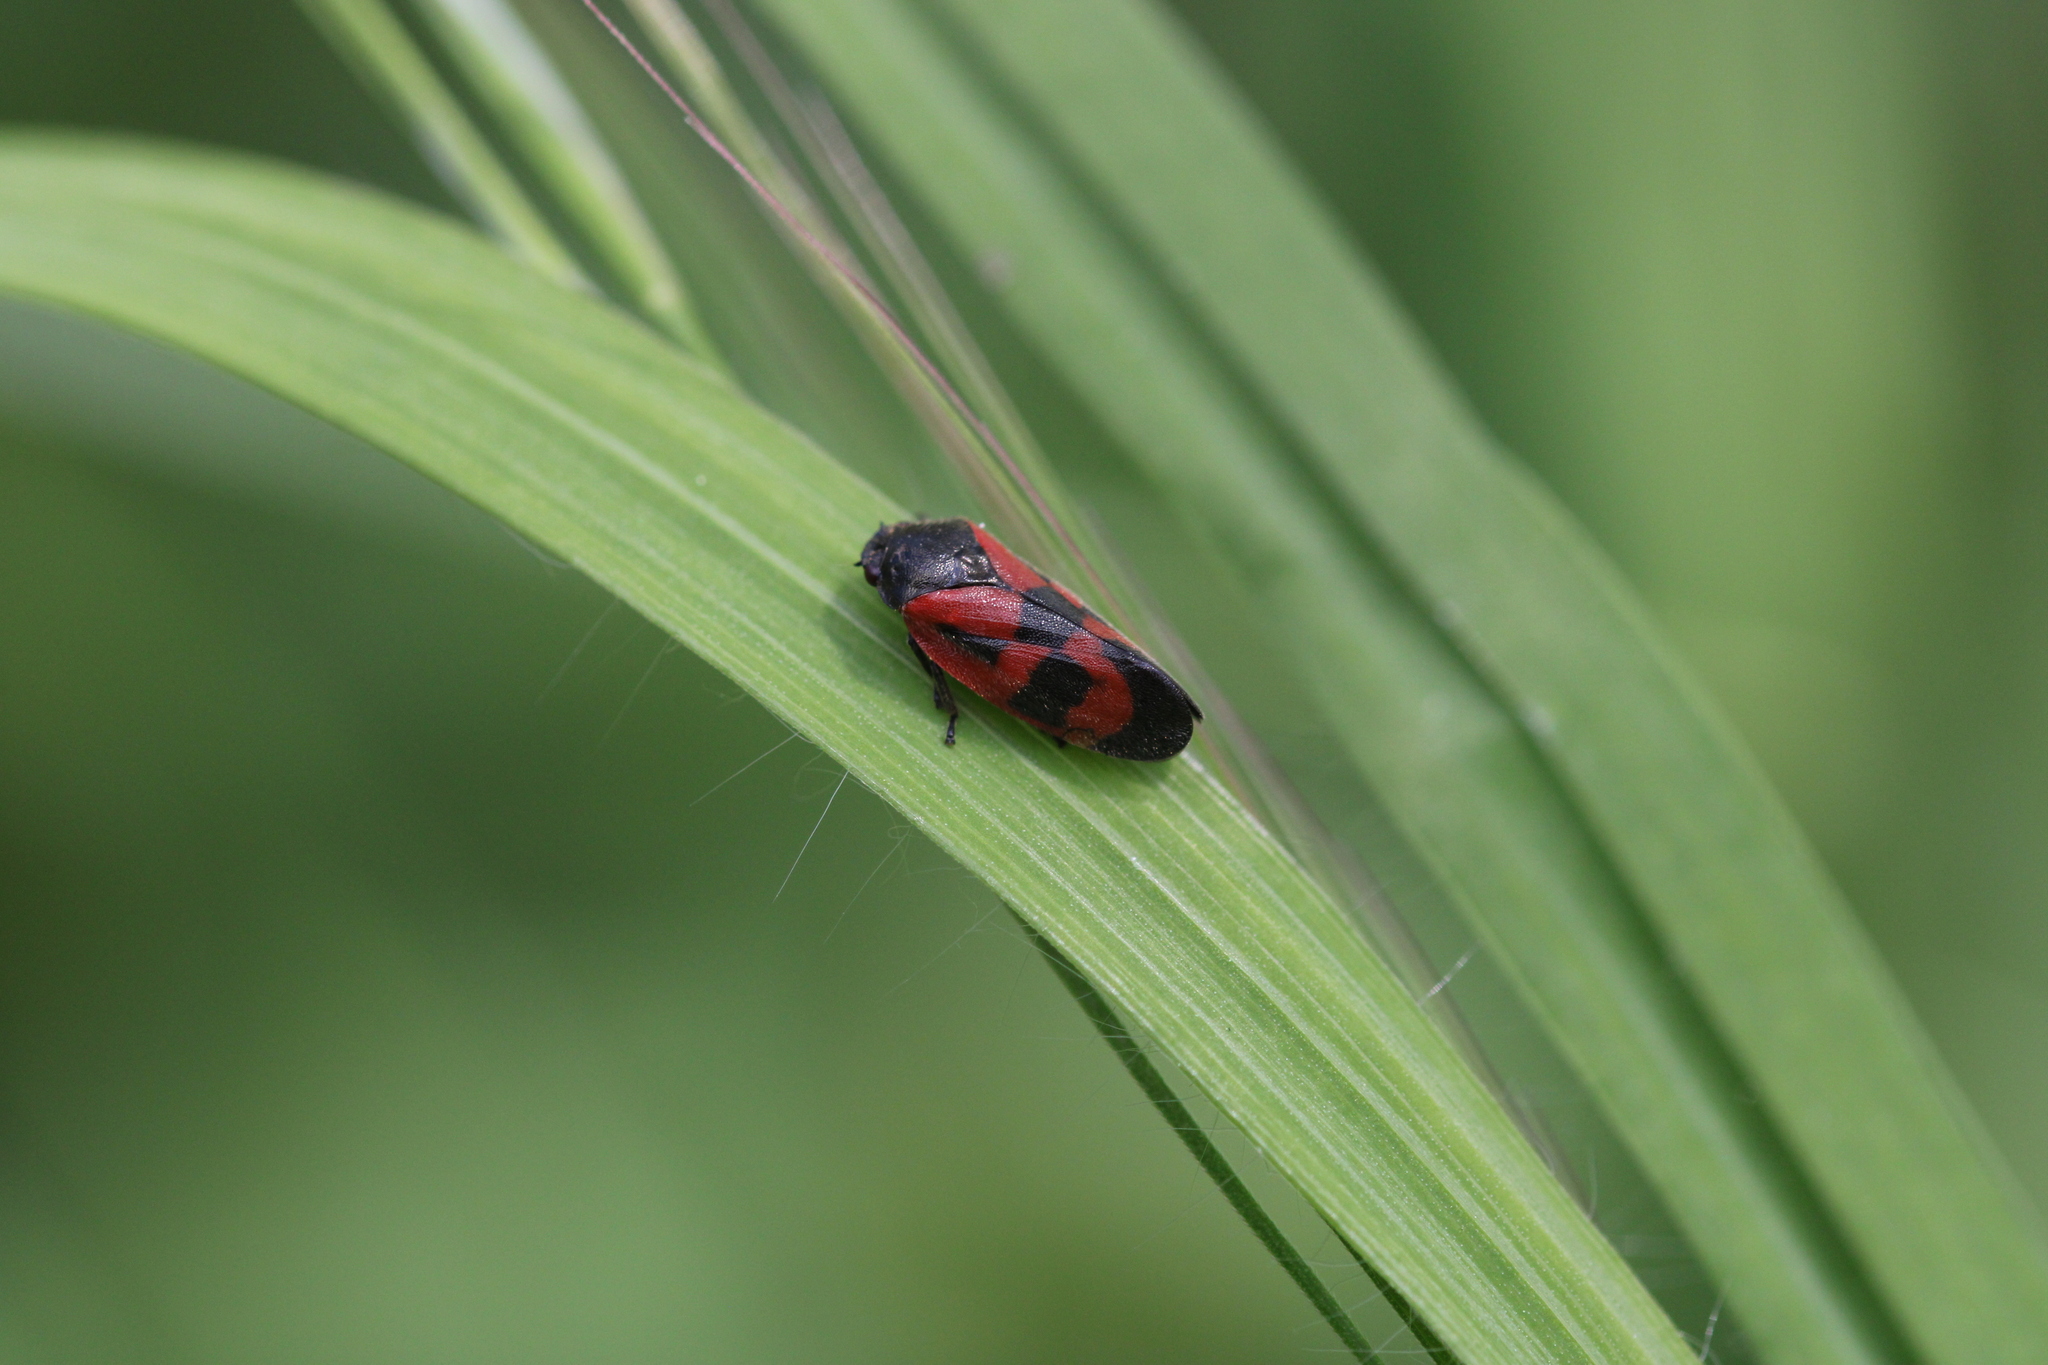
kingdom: Animalia
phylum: Arthropoda
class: Insecta
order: Hemiptera
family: Cercopidae
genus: Haematoloma
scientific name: Haematoloma dorsata
